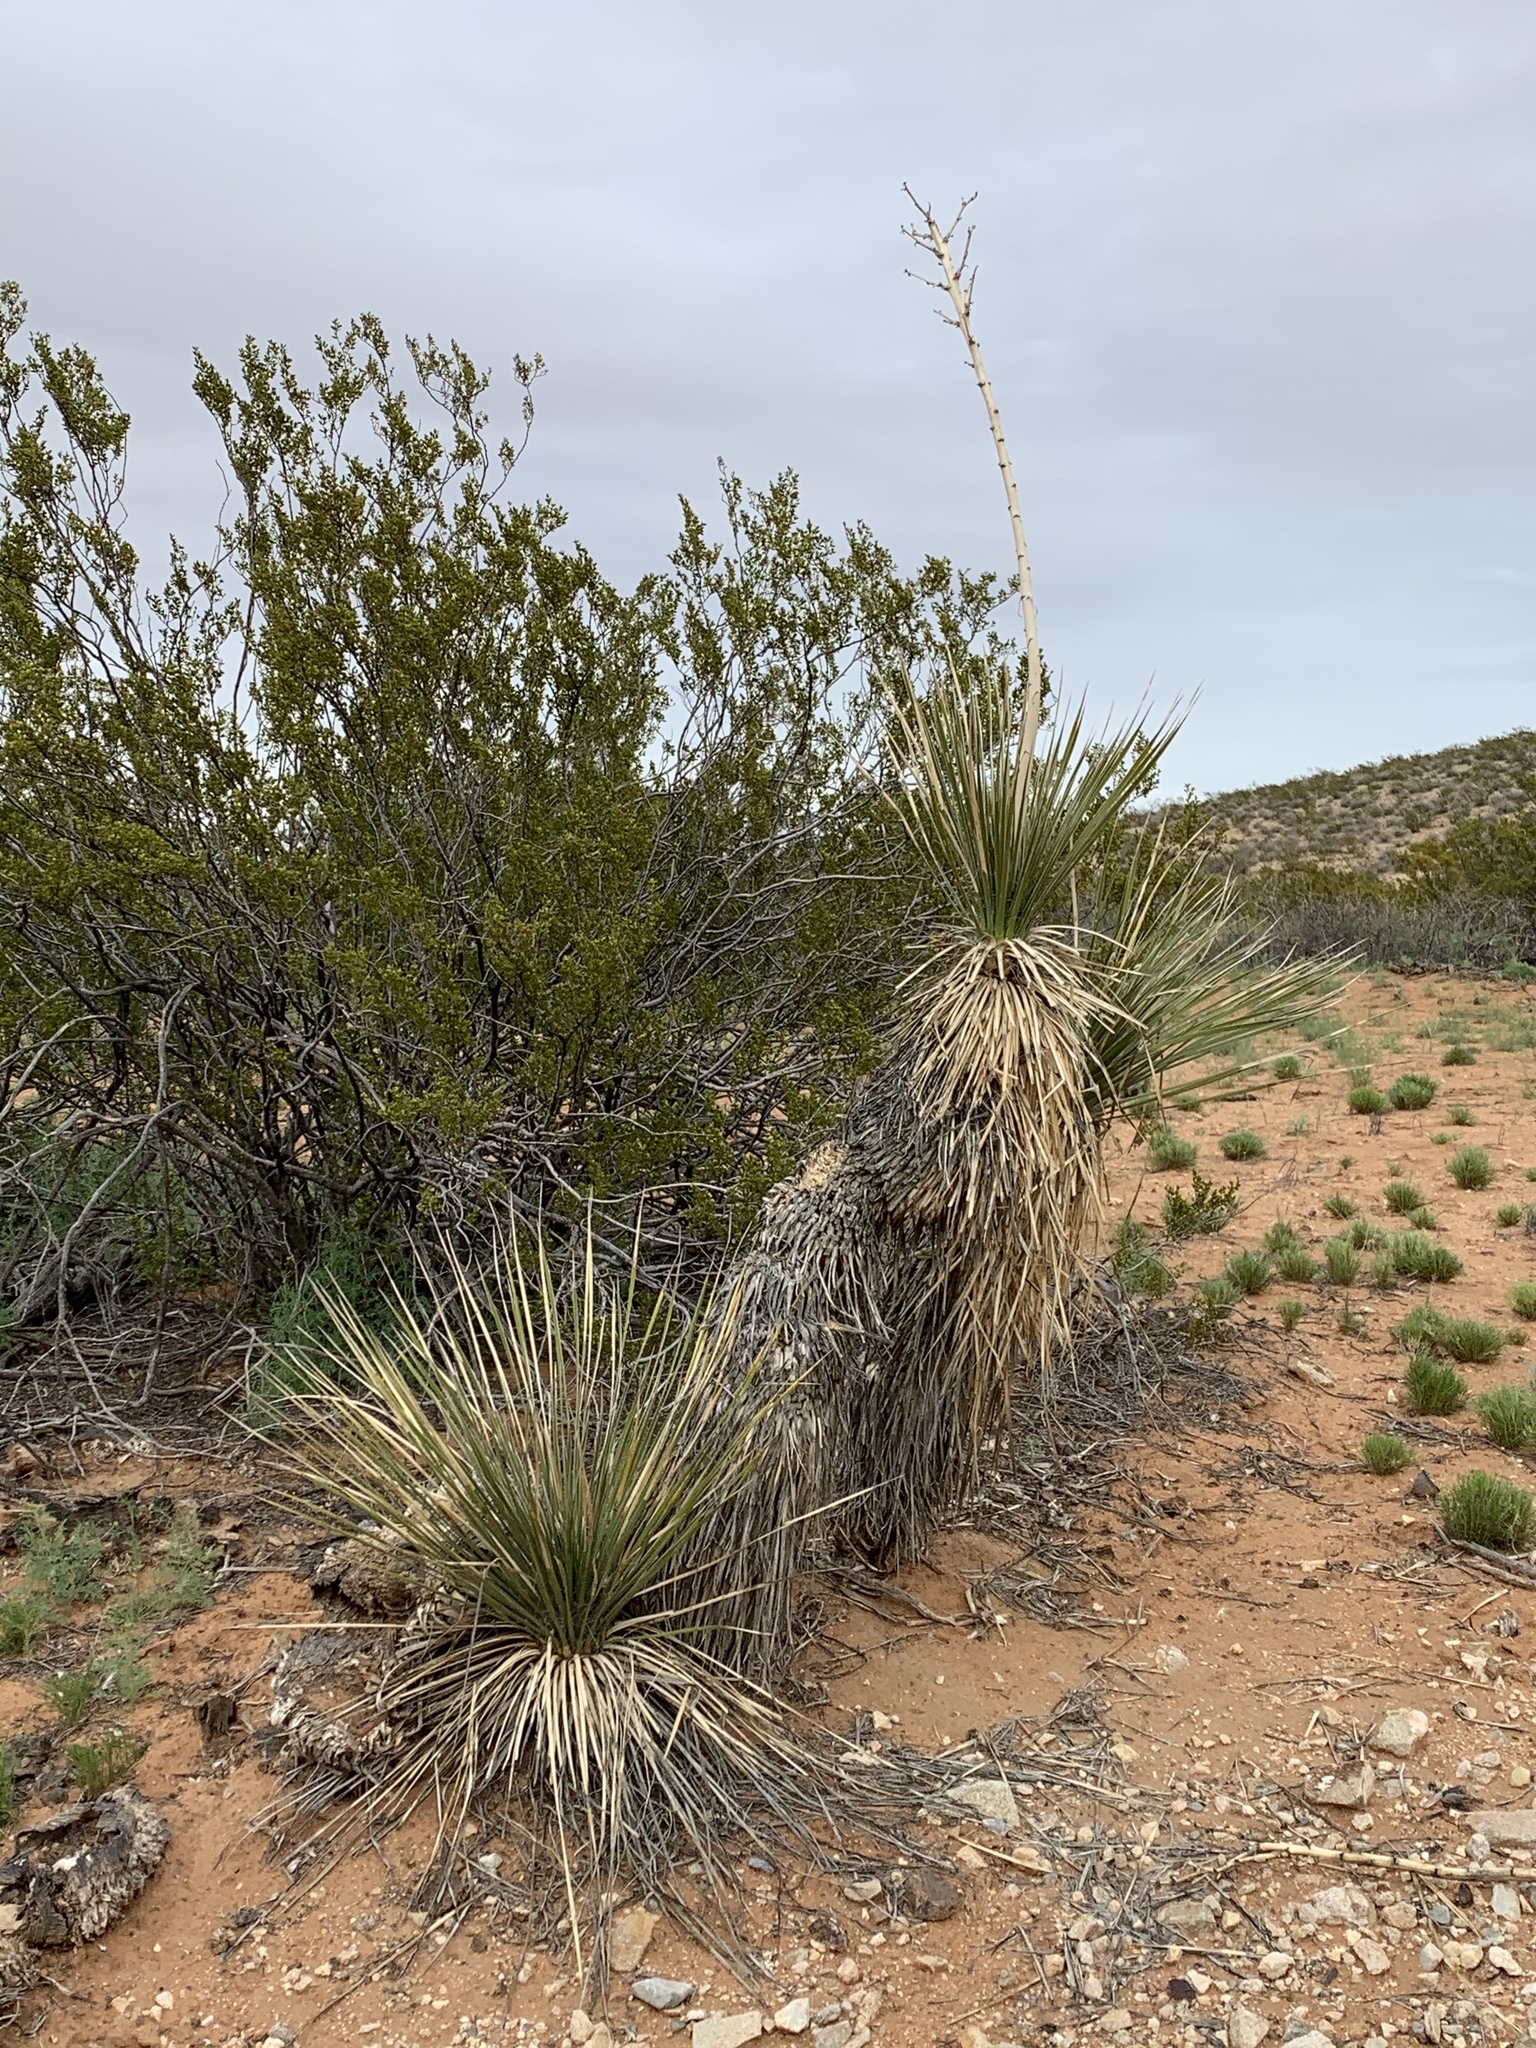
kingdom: Plantae
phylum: Tracheophyta
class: Liliopsida
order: Asparagales
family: Asparagaceae
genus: Yucca
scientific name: Yucca elata
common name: Palmella
